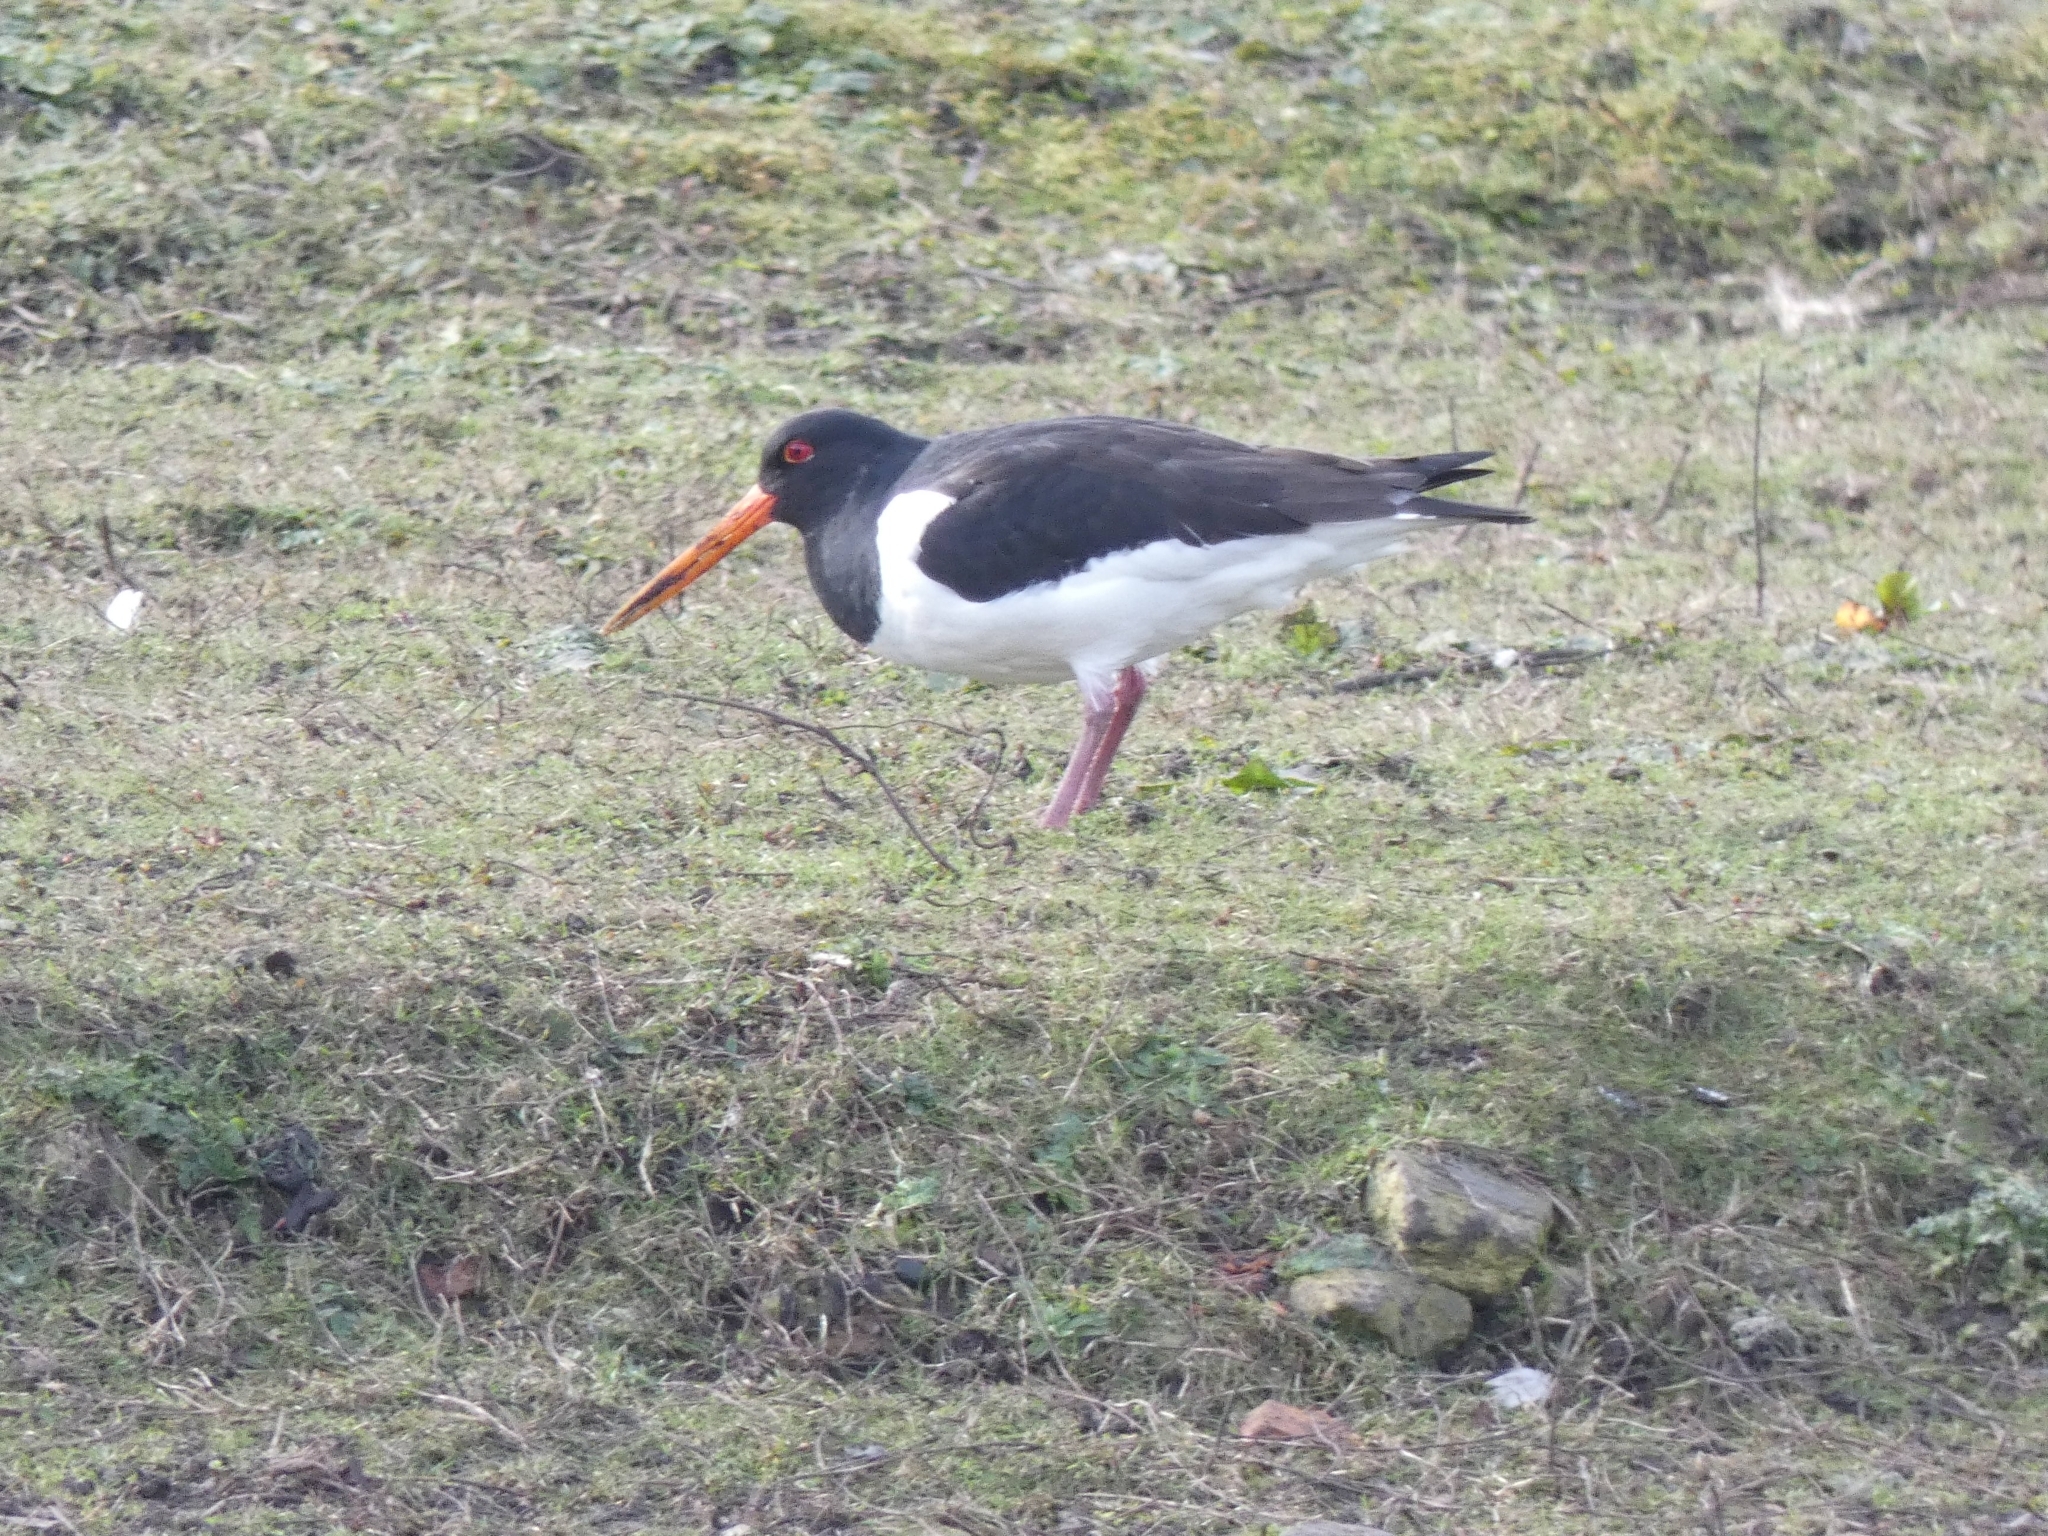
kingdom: Animalia
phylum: Chordata
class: Aves
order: Charadriiformes
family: Haematopodidae
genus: Haematopus
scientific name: Haematopus ostralegus
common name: Eurasian oystercatcher
